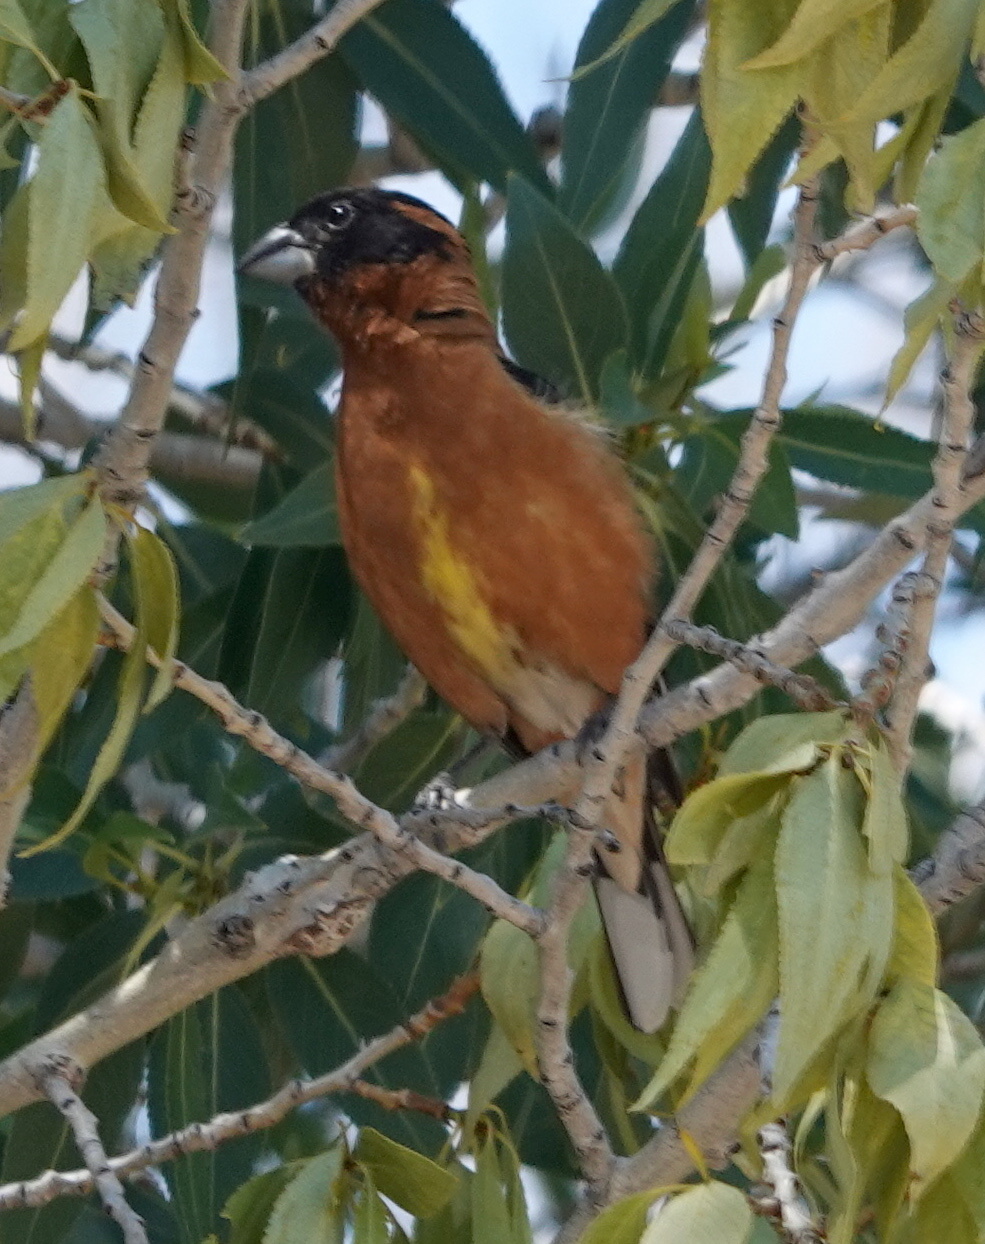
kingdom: Animalia
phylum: Chordata
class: Aves
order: Passeriformes
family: Cardinalidae
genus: Pheucticus
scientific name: Pheucticus melanocephalus
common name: Black-headed grosbeak
